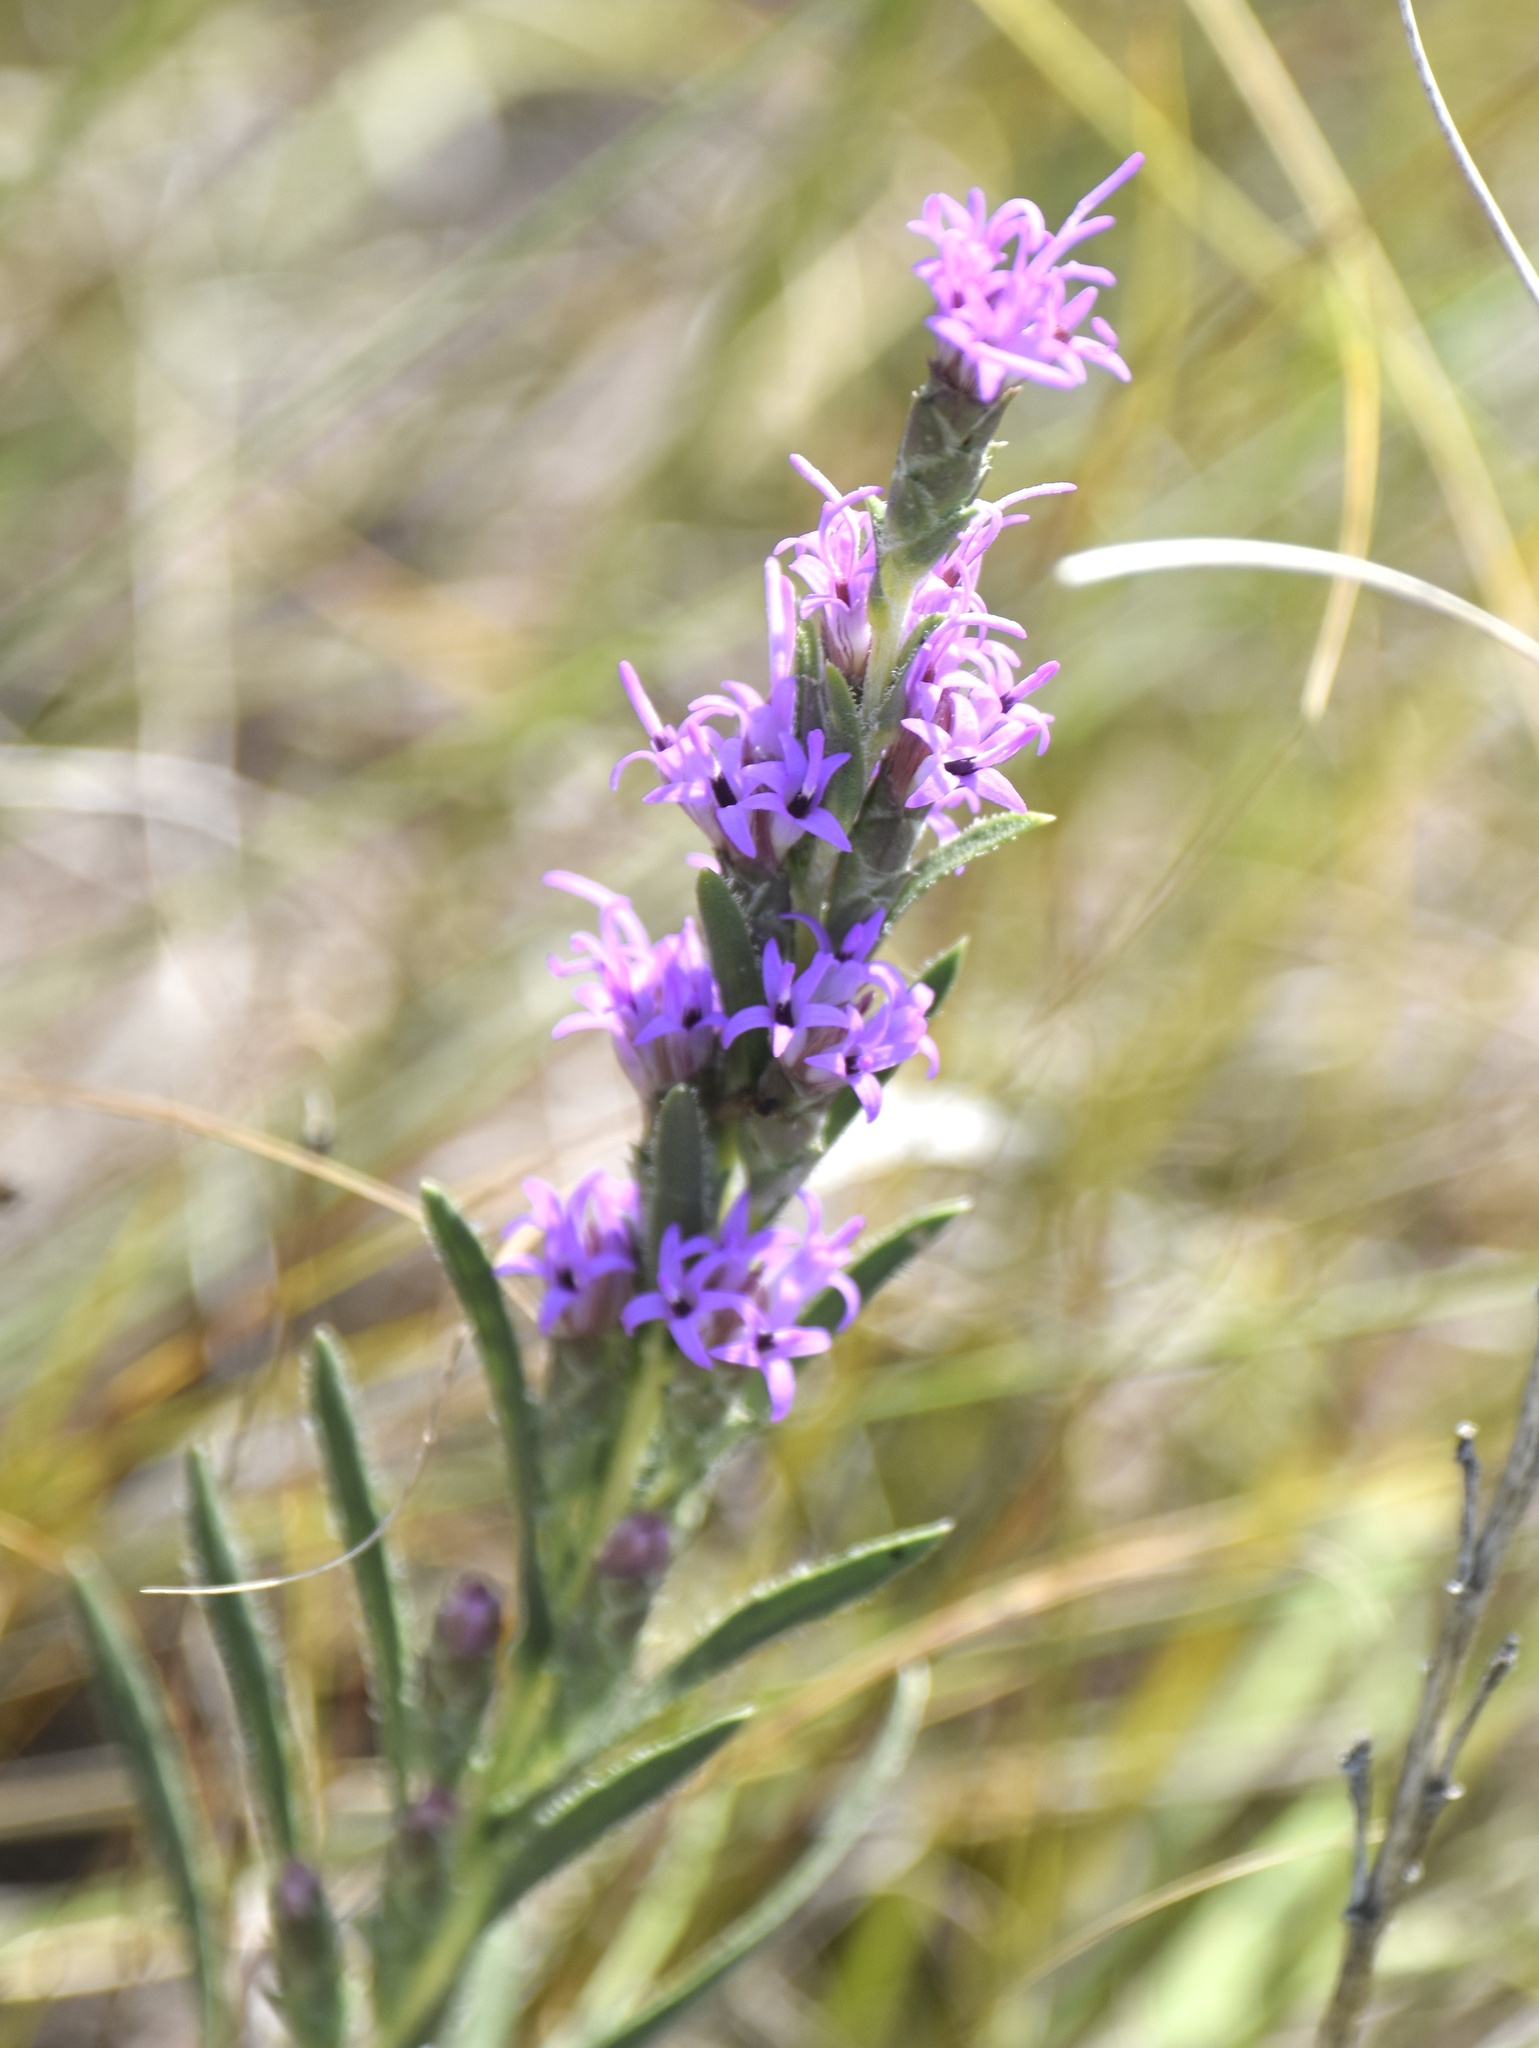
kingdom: Plantae
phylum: Tracheophyta
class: Magnoliopsida
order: Asterales
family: Asteraceae
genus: Liatris
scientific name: Liatris punctata
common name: Dotted gayfeather
